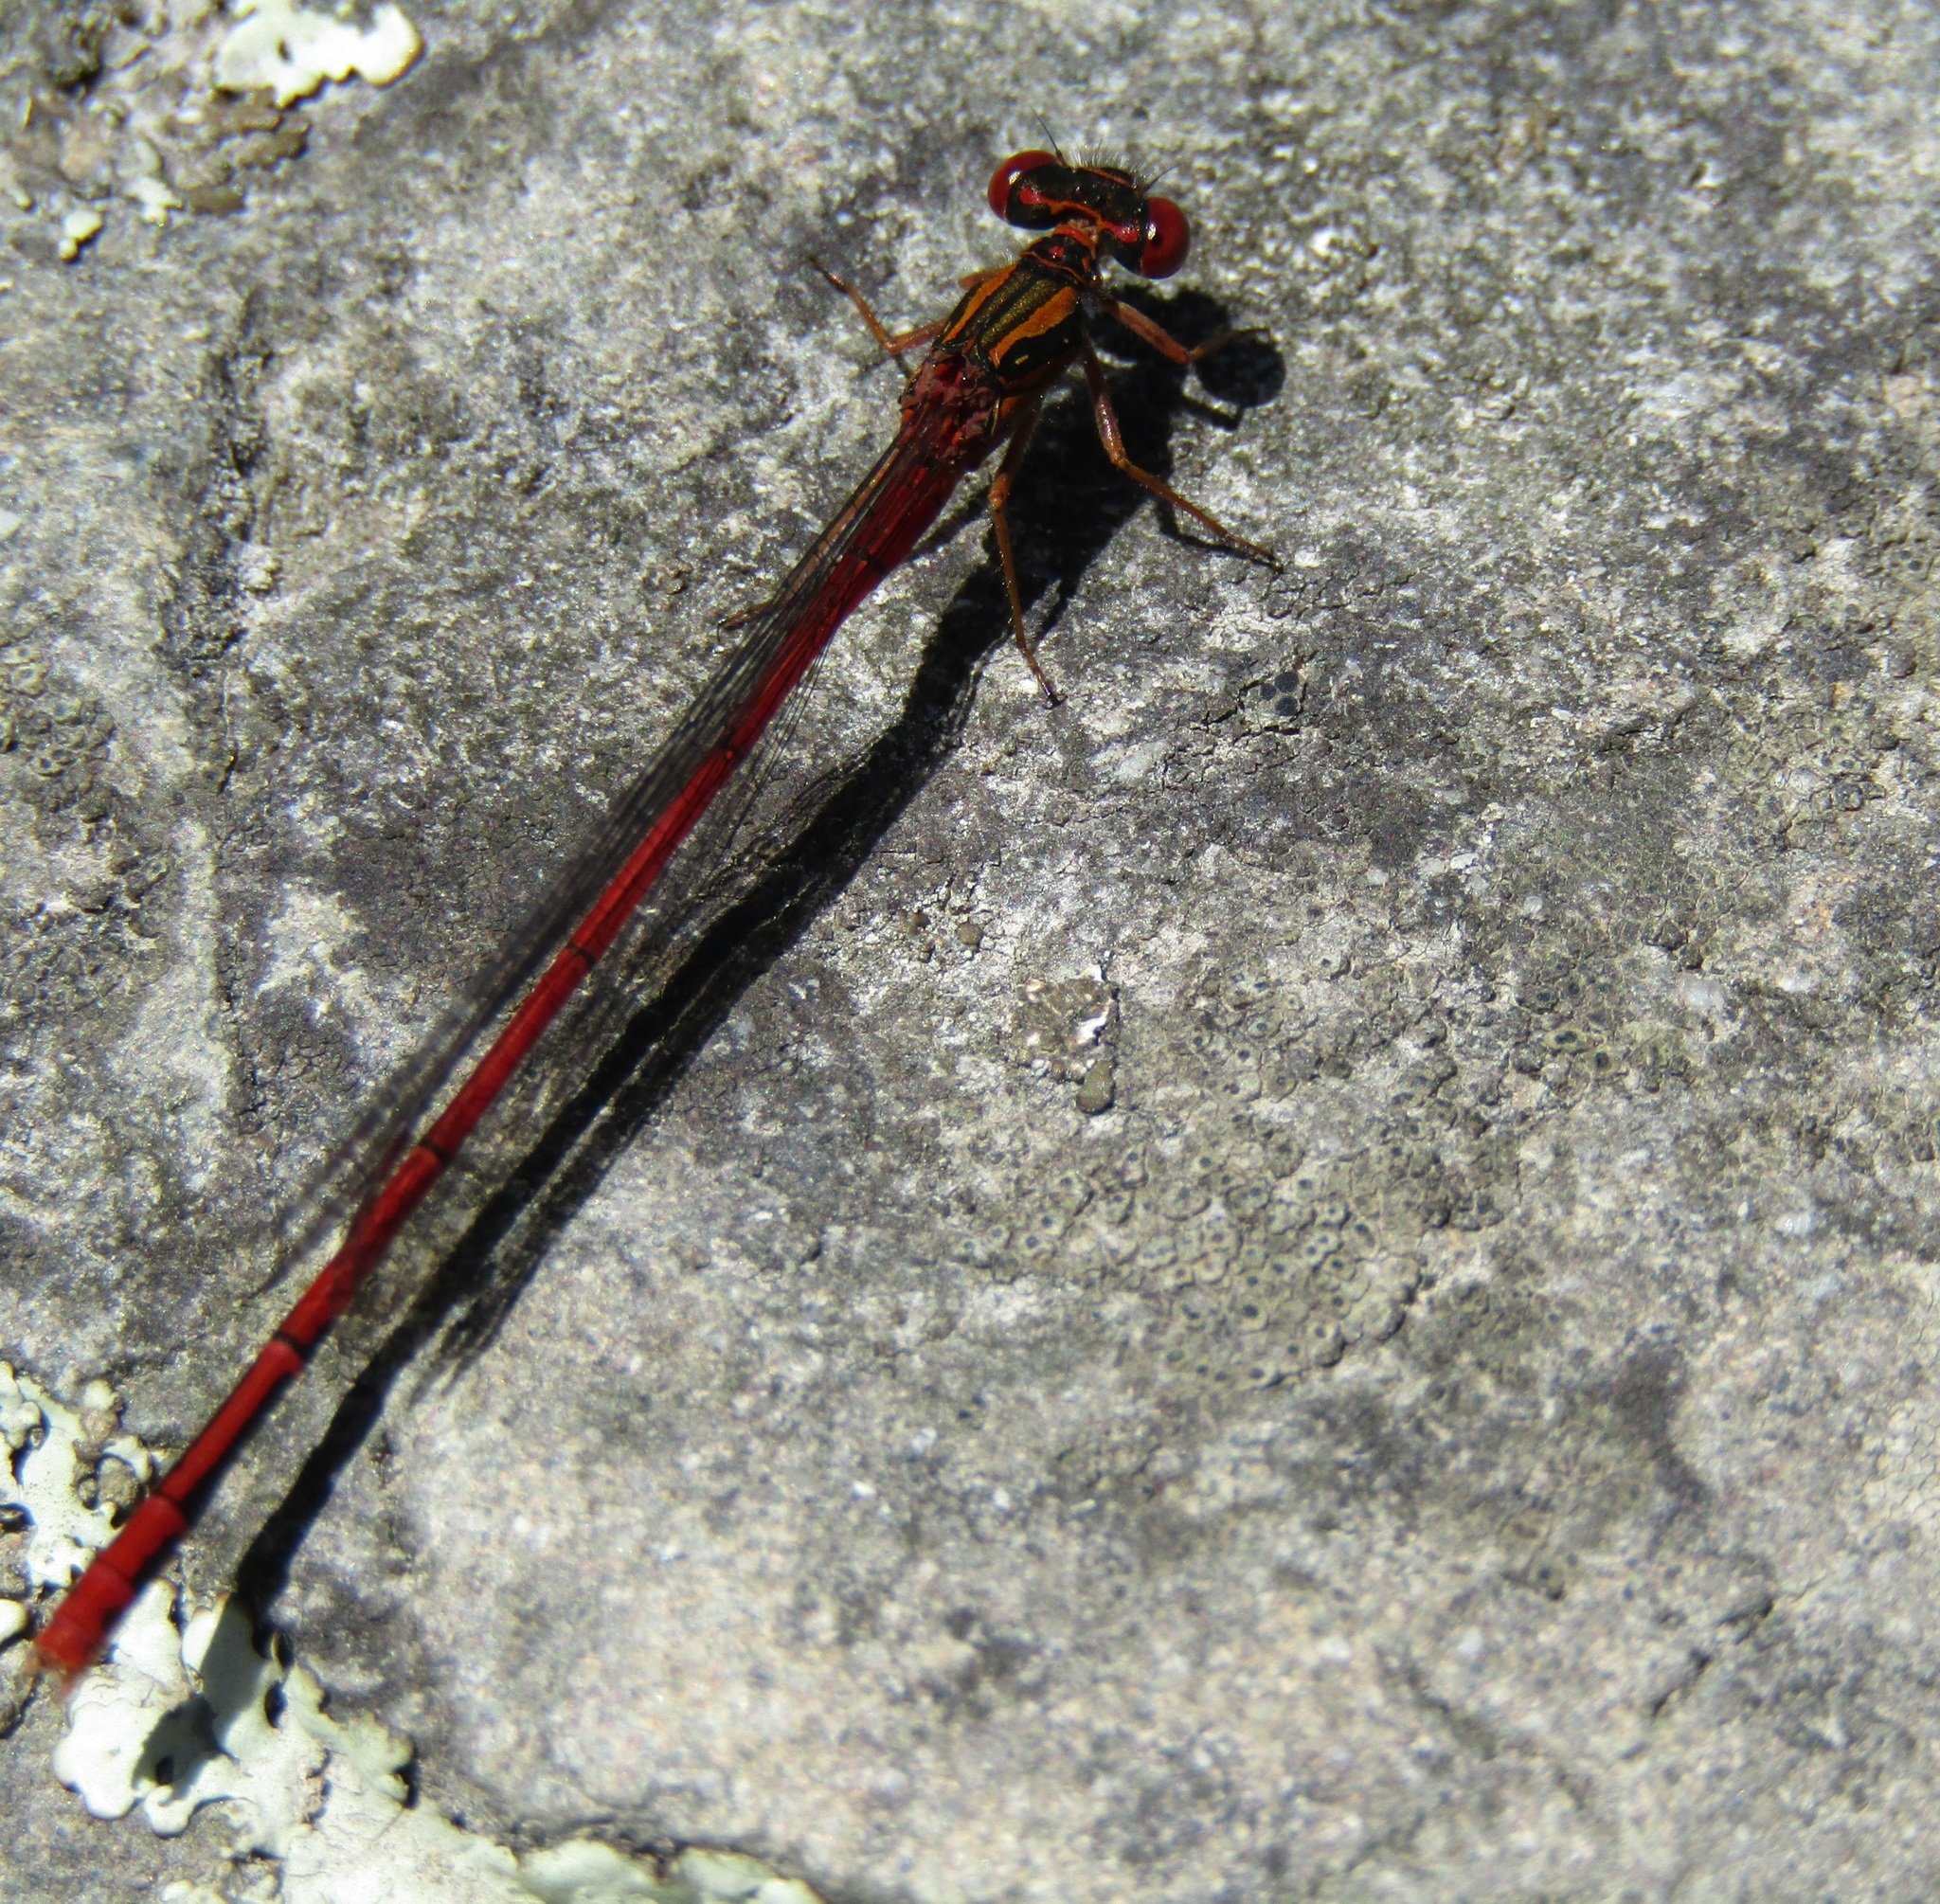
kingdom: Animalia
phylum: Arthropoda
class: Insecta
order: Odonata
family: Coenagrionidae
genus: Xanthocnemis
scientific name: Xanthocnemis zealandica
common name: Common redcoat damselfly
